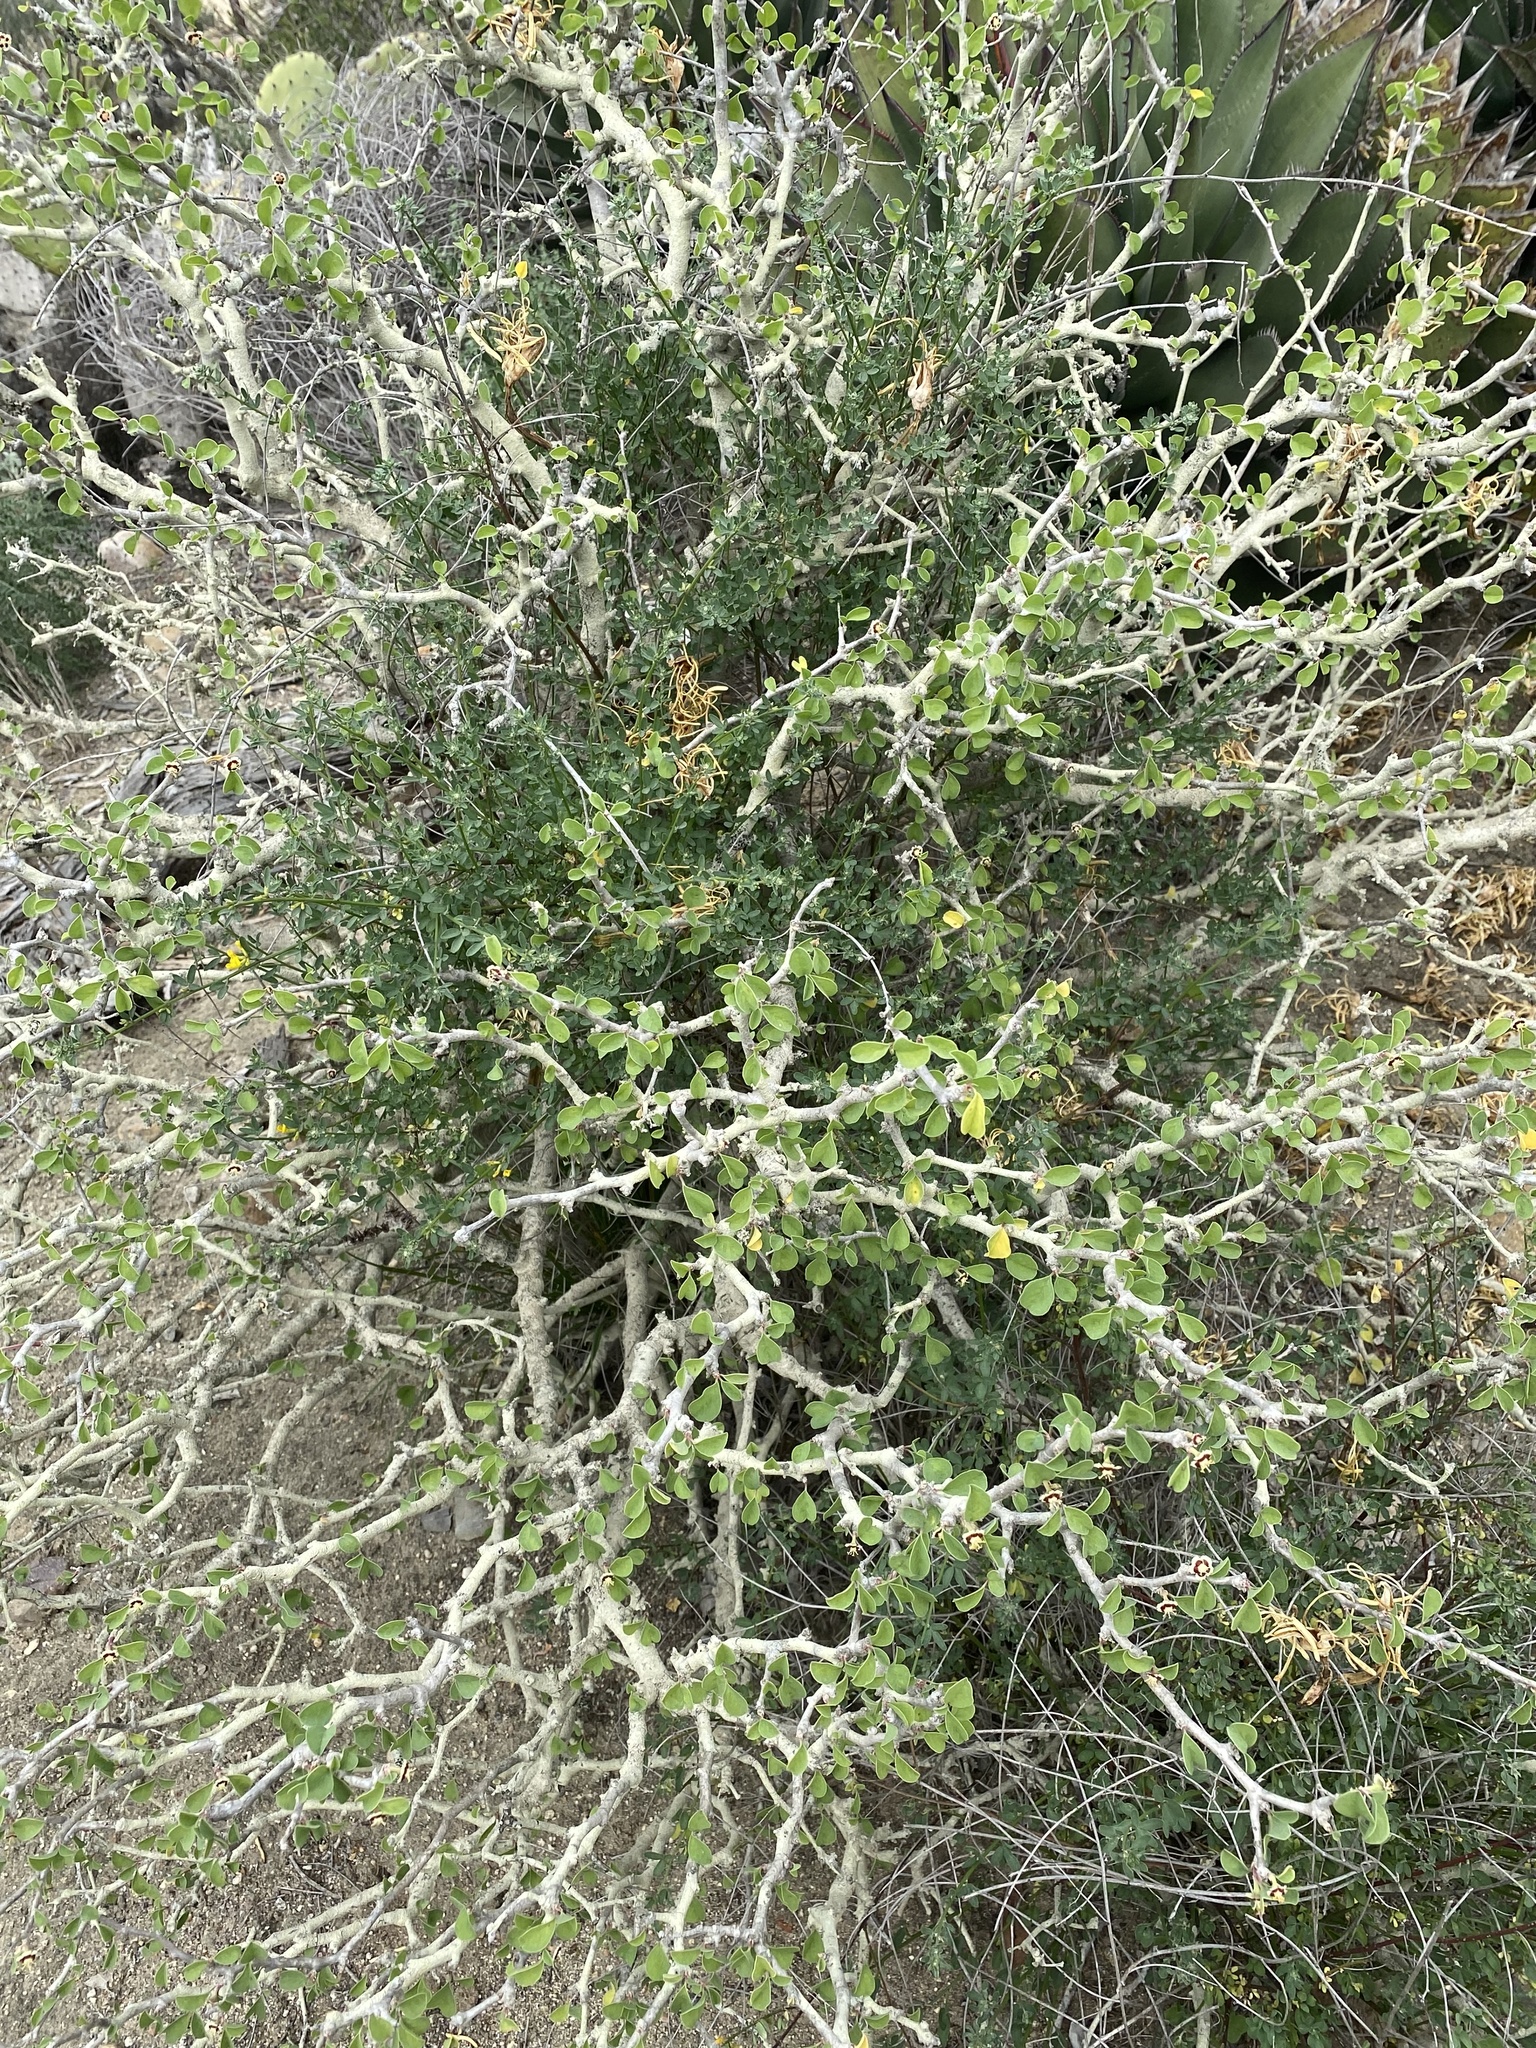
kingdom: Plantae
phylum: Tracheophyta
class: Magnoliopsida
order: Malpighiales
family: Euphorbiaceae
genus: Euphorbia
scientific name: Euphorbia misera
